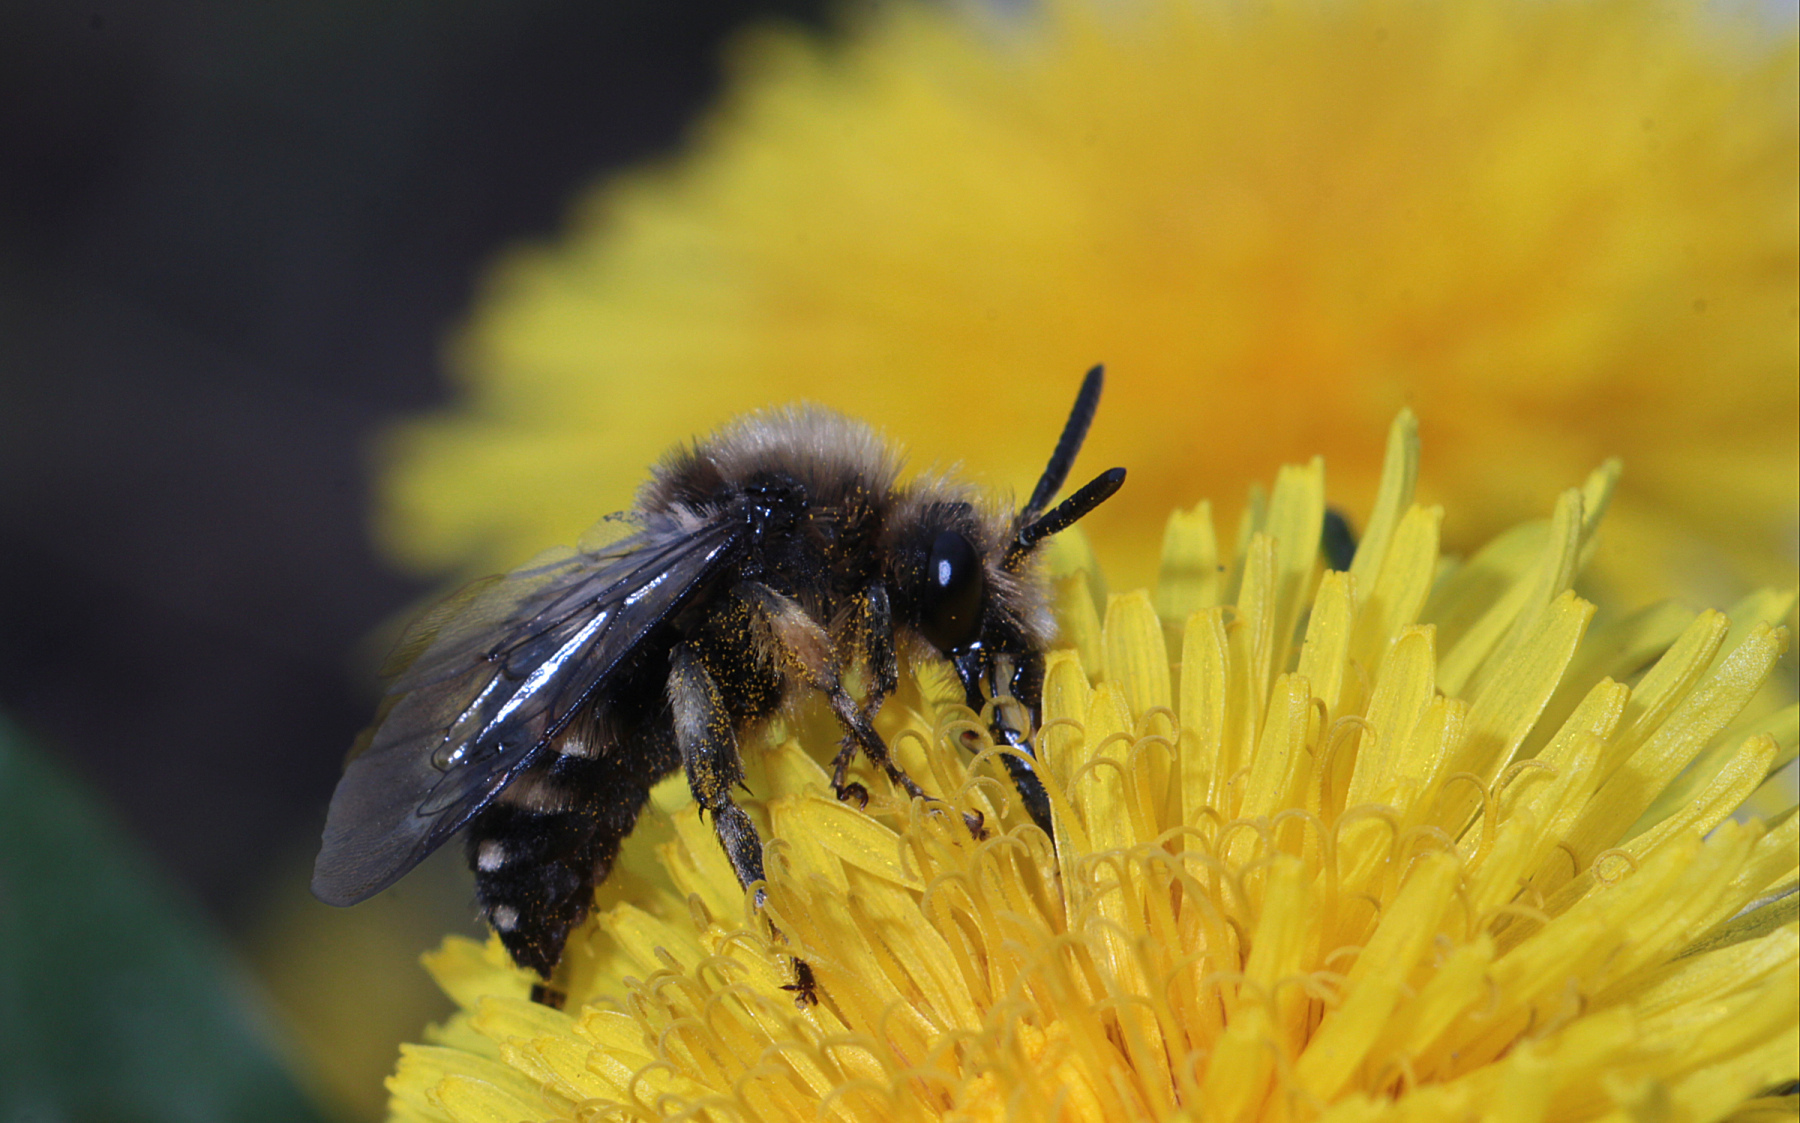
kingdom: Animalia
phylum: Arthropoda
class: Insecta
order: Hymenoptera
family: Apidae
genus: Melecta
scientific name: Melecta albifrons
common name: Common mourning bee
